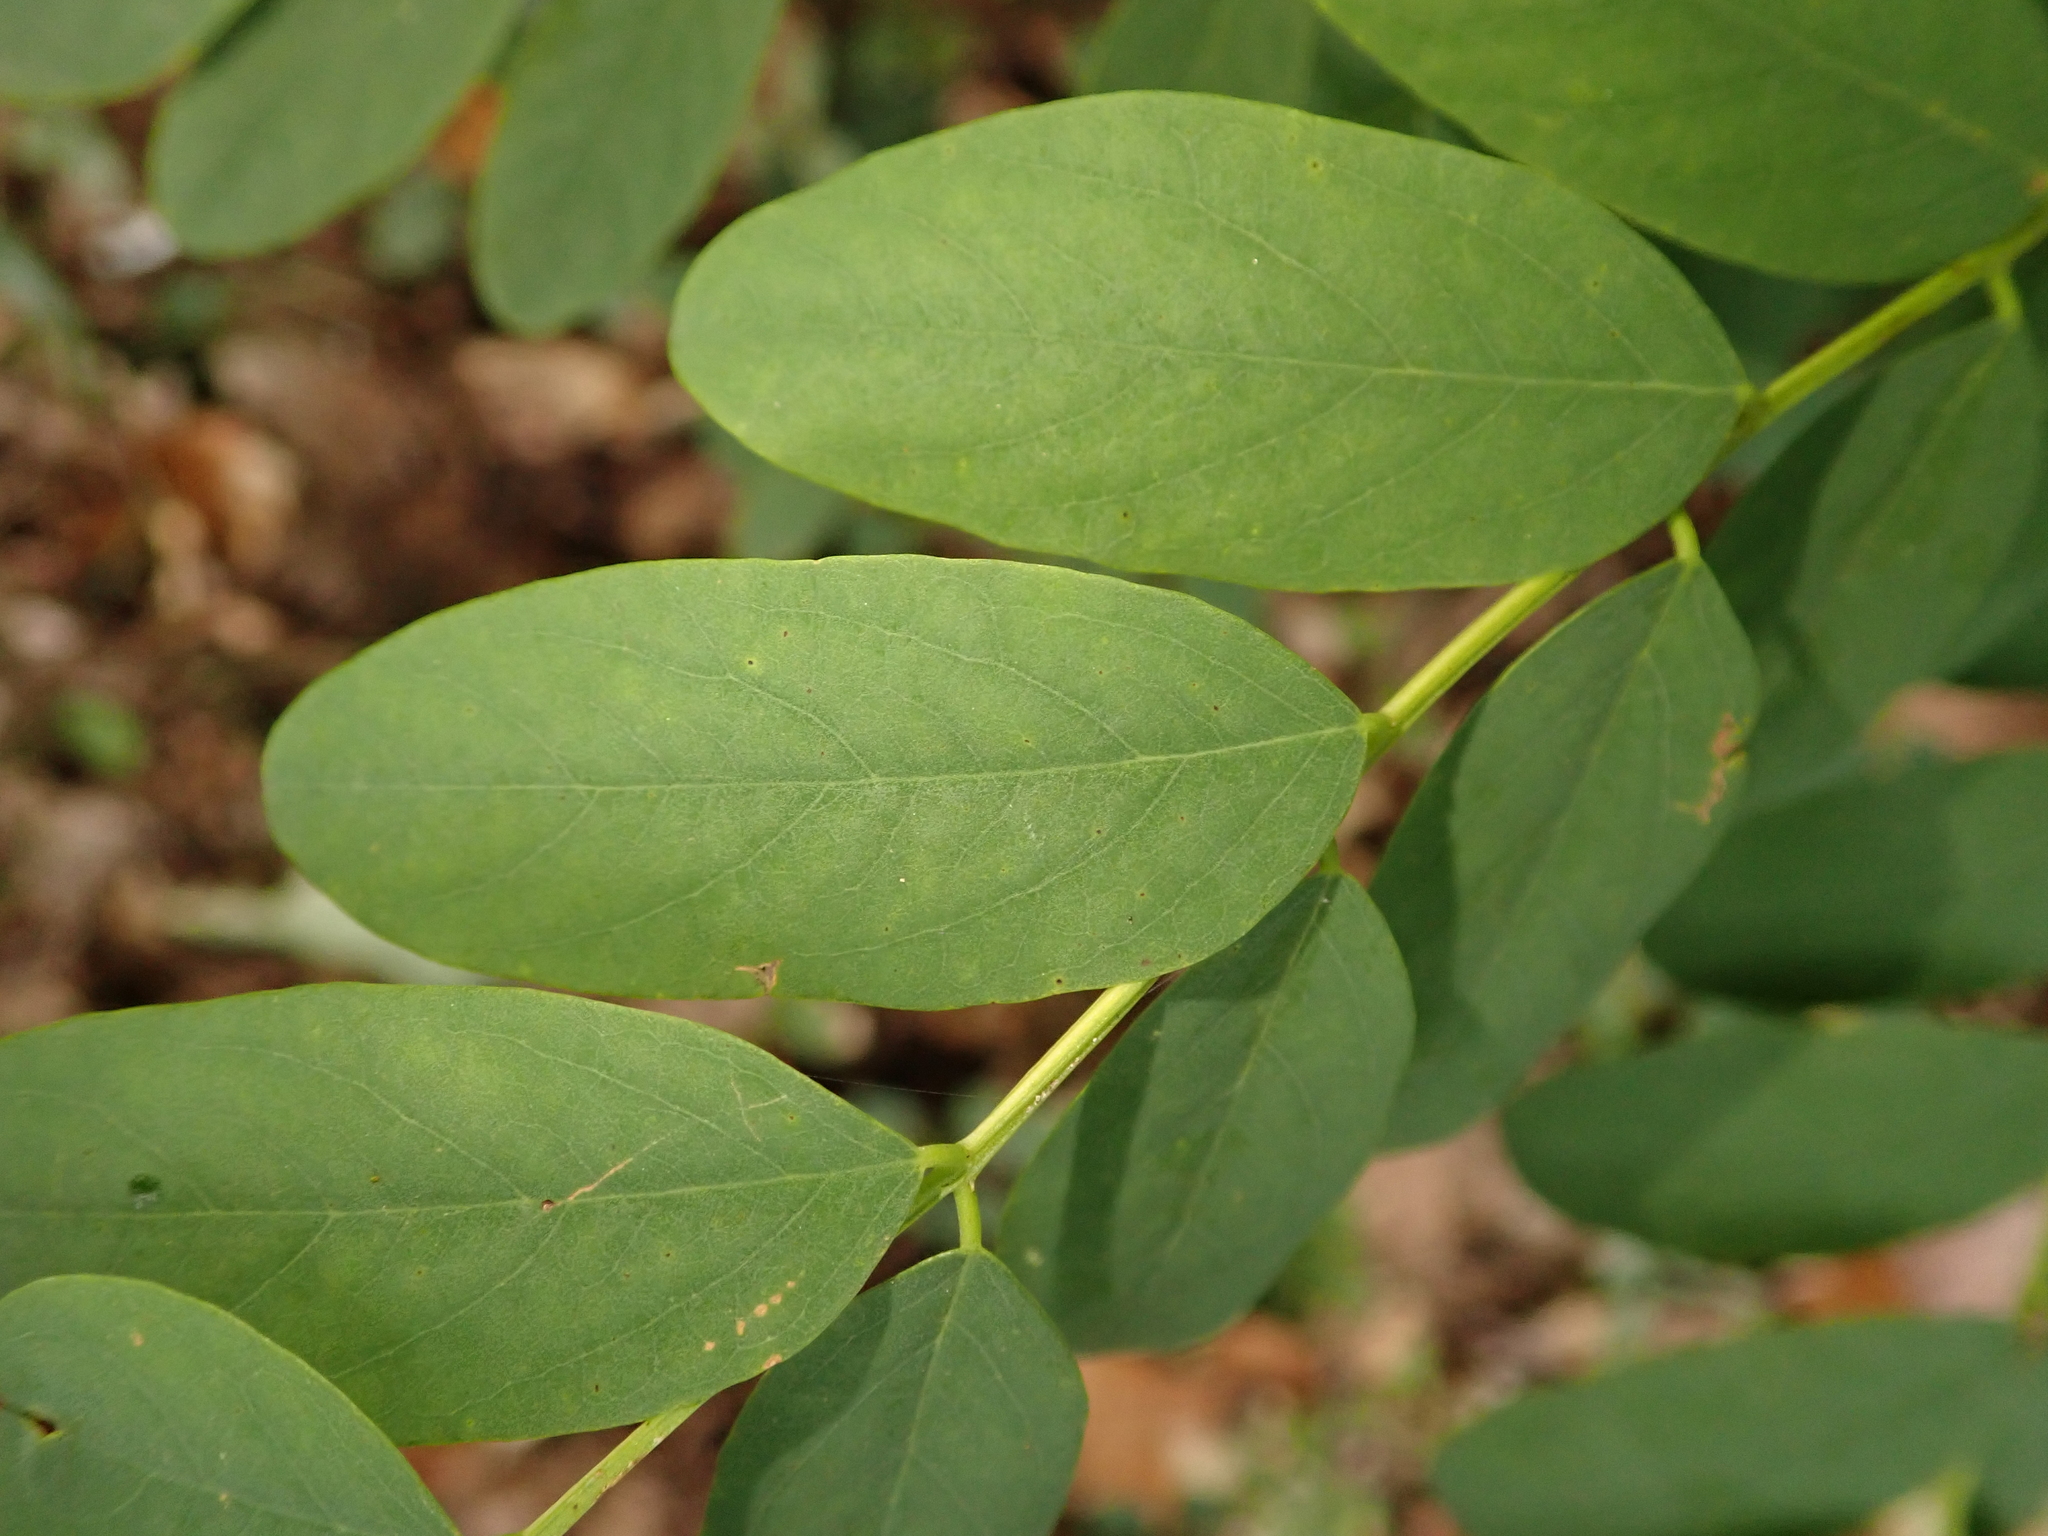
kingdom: Plantae
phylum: Tracheophyta
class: Magnoliopsida
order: Fabales
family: Fabaceae
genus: Robinia
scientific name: Robinia pseudoacacia
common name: Black locust
